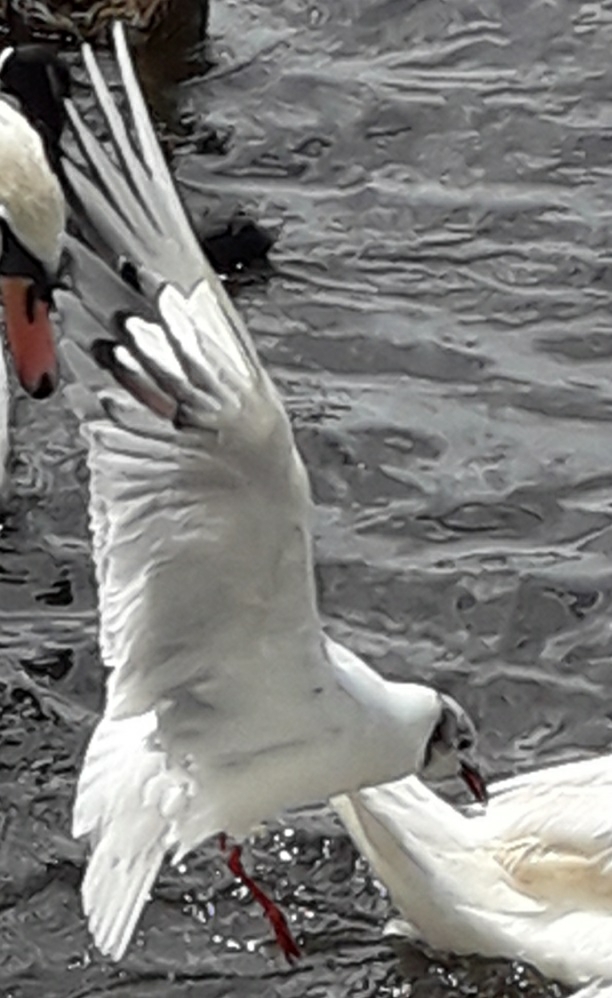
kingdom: Animalia
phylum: Chordata
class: Aves
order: Charadriiformes
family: Laridae
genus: Chroicocephalus
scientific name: Chroicocephalus ridibundus
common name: Black-headed gull
